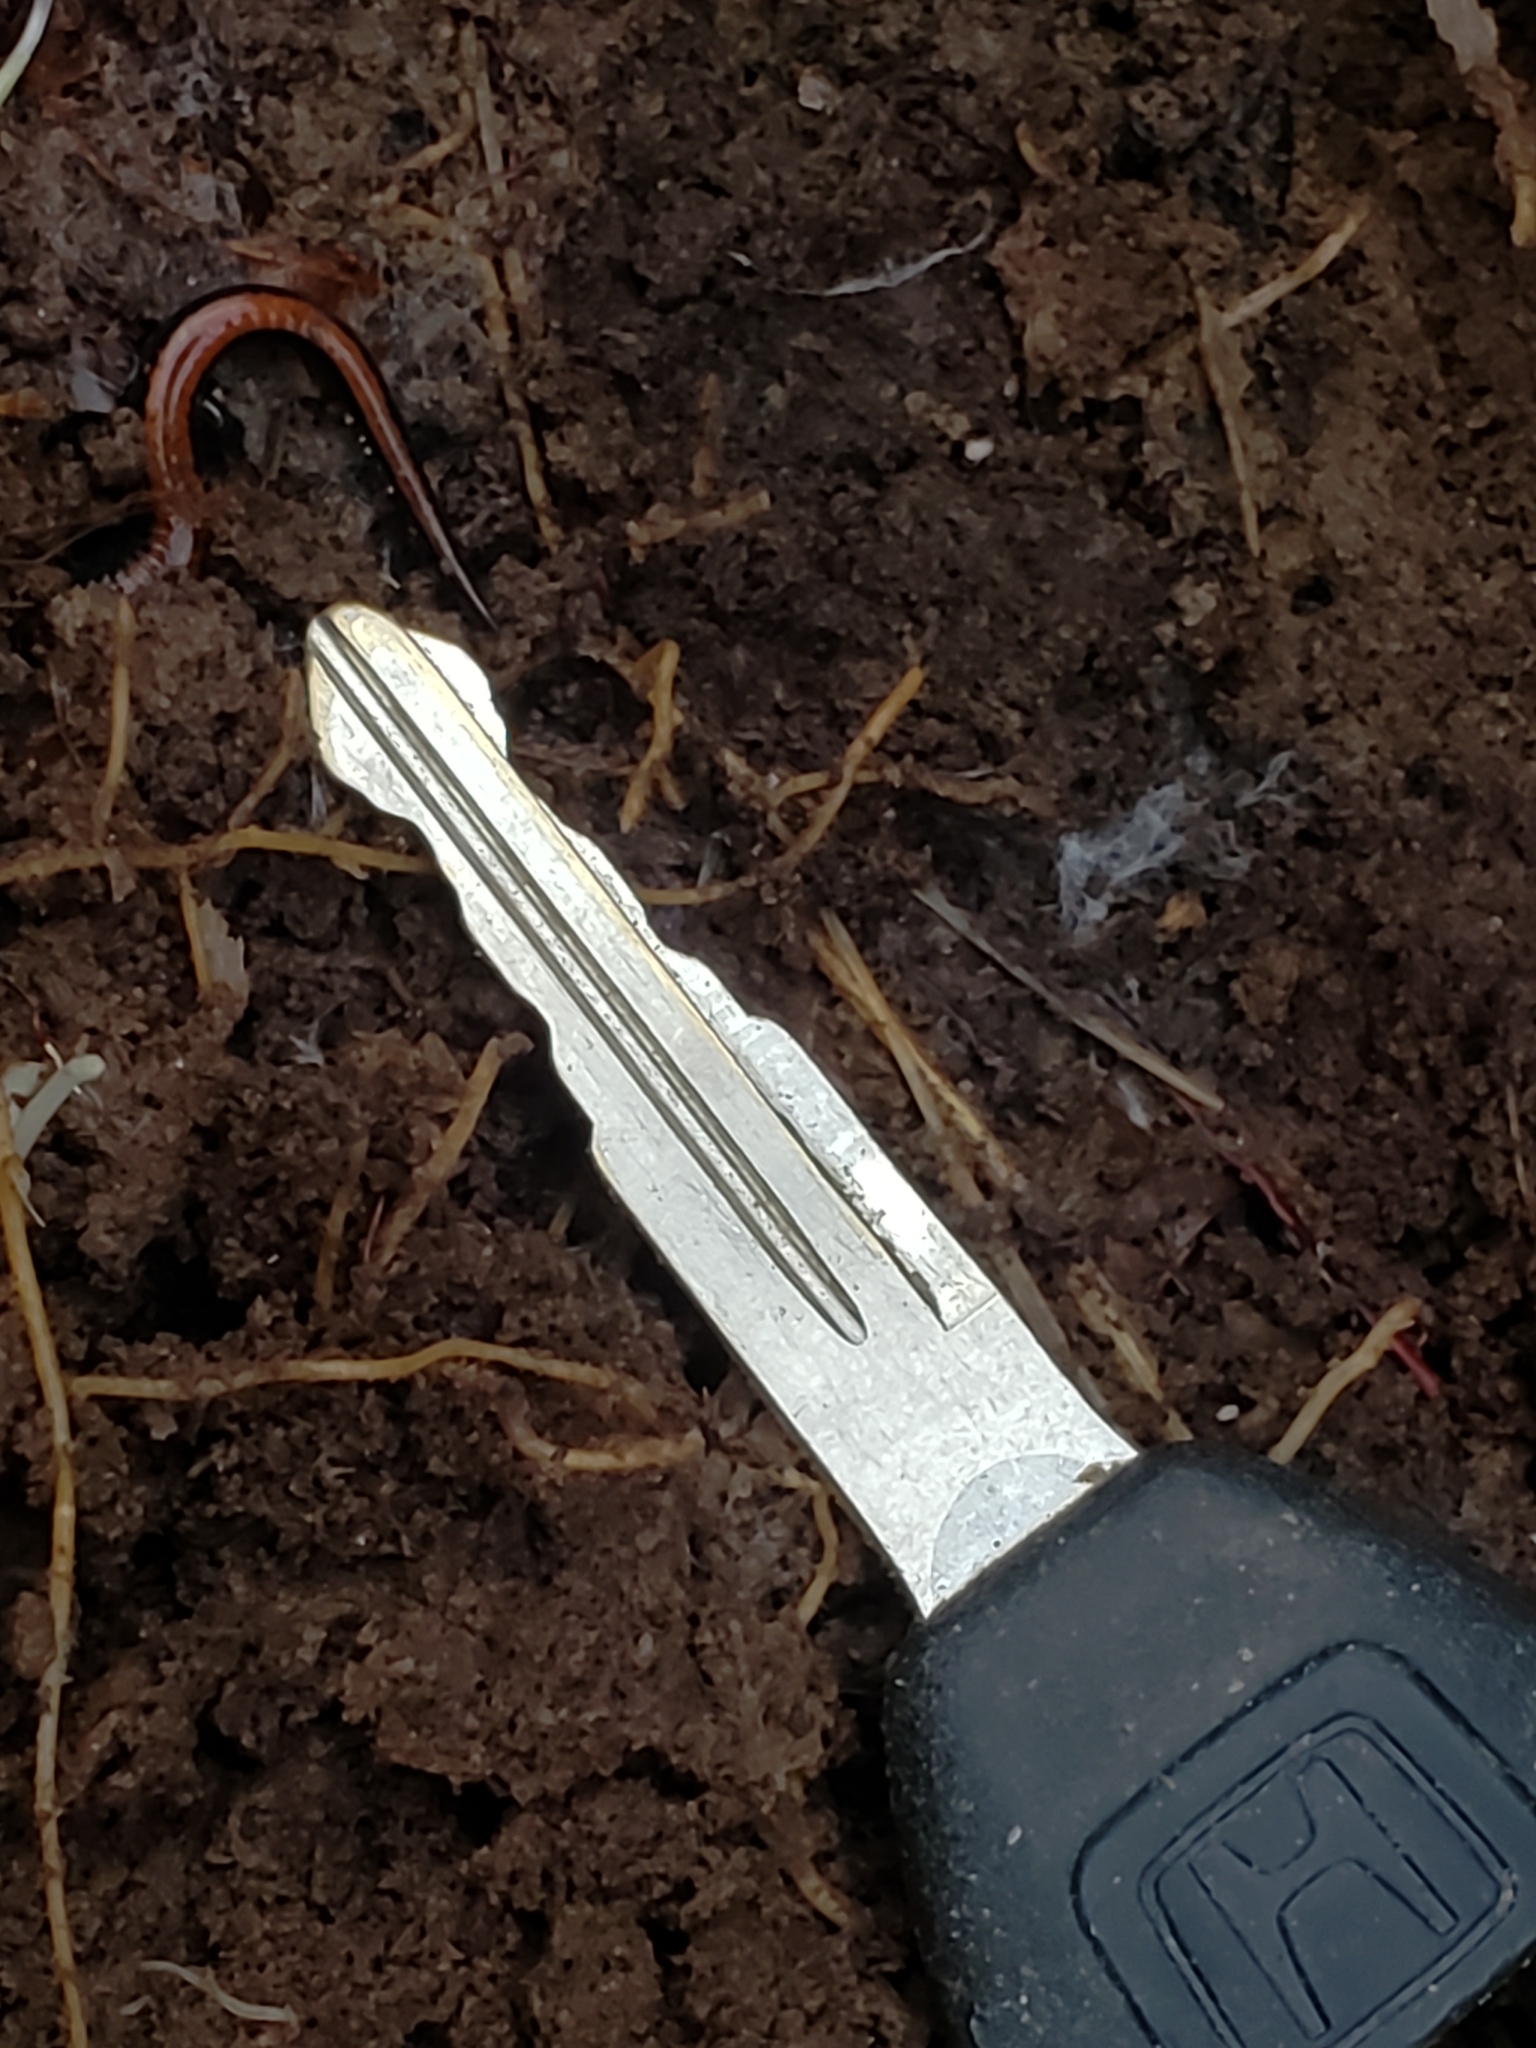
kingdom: Animalia
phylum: Chordata
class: Amphibia
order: Caudata
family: Plethodontidae
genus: Plethodon
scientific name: Plethodon cinereus
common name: Redback salamander
